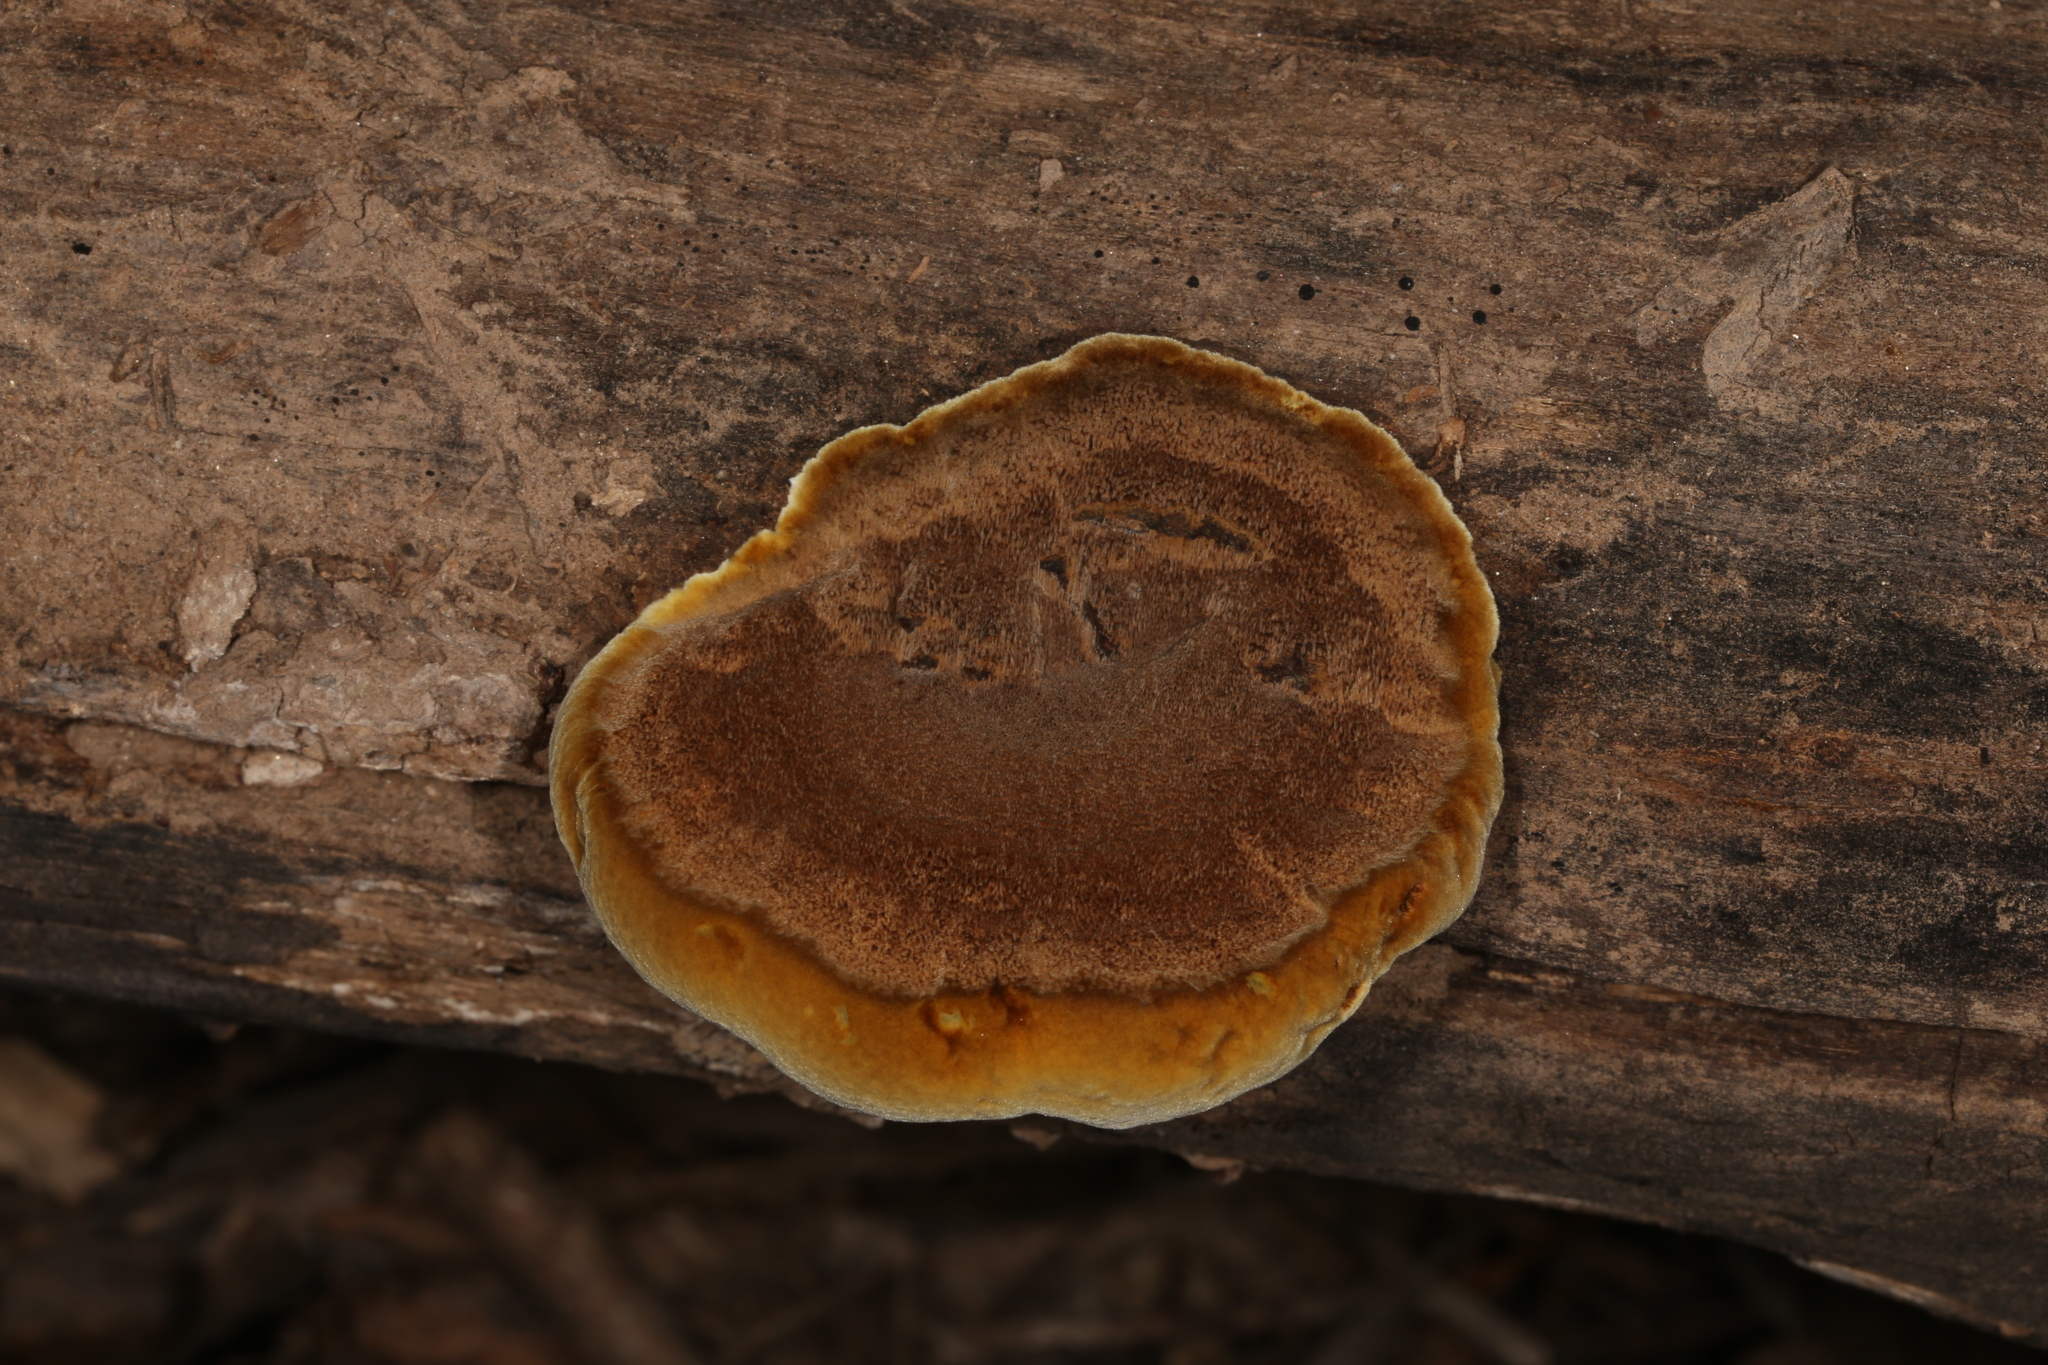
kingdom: Fungi
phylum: Basidiomycota
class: Agaricomycetes
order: Hymenochaetales
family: Hymenochaetaceae
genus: Phellinus
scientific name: Phellinus gilvus
